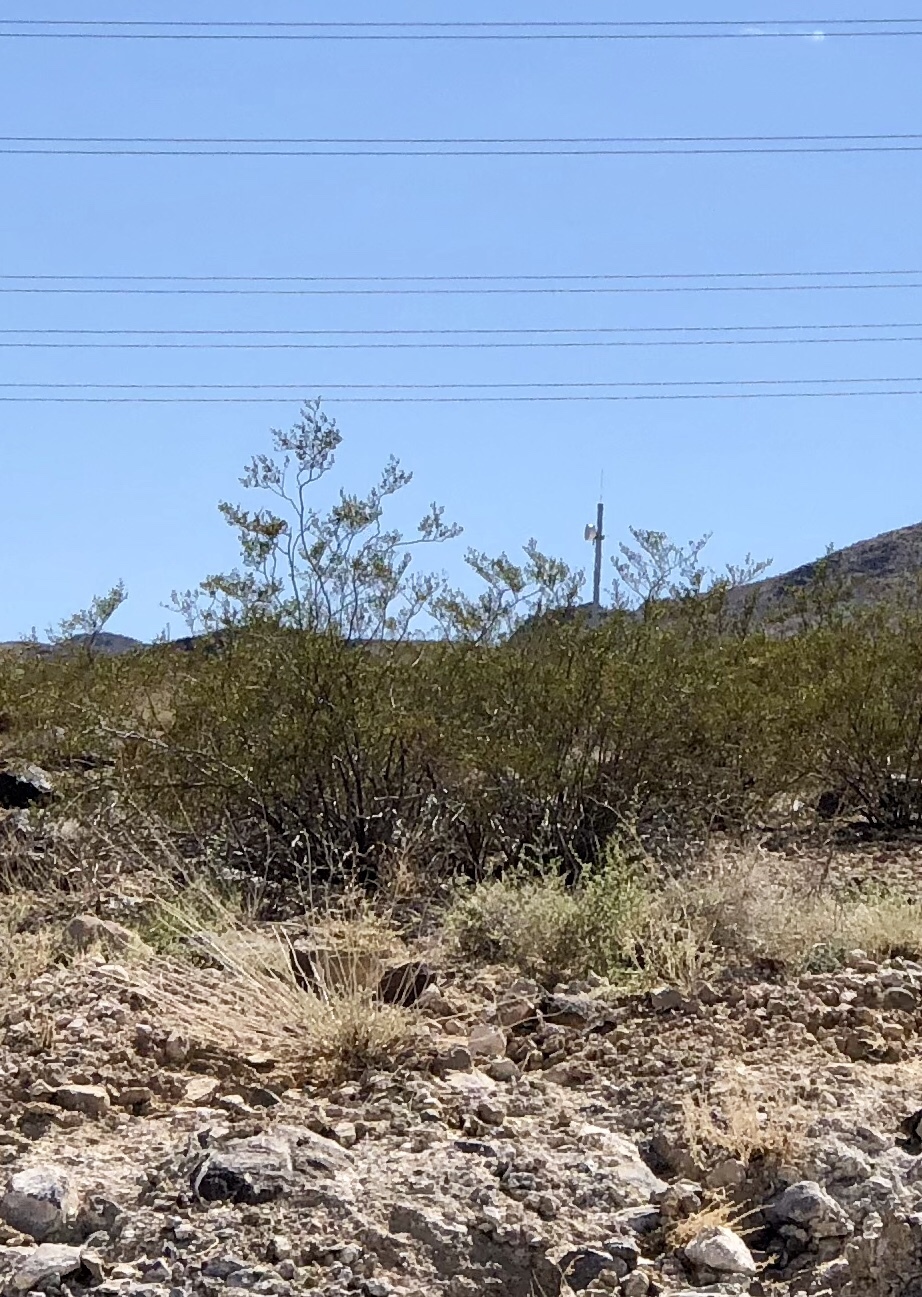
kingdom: Plantae
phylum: Tracheophyta
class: Magnoliopsida
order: Zygophyllales
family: Zygophyllaceae
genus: Larrea
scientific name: Larrea tridentata
